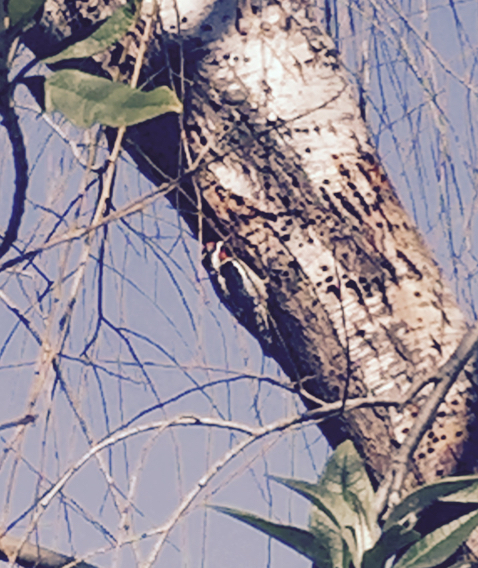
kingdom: Animalia
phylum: Chordata
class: Aves
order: Piciformes
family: Picidae
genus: Sphyrapicus
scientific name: Sphyrapicus nuchalis
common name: Red-naped sapsucker
